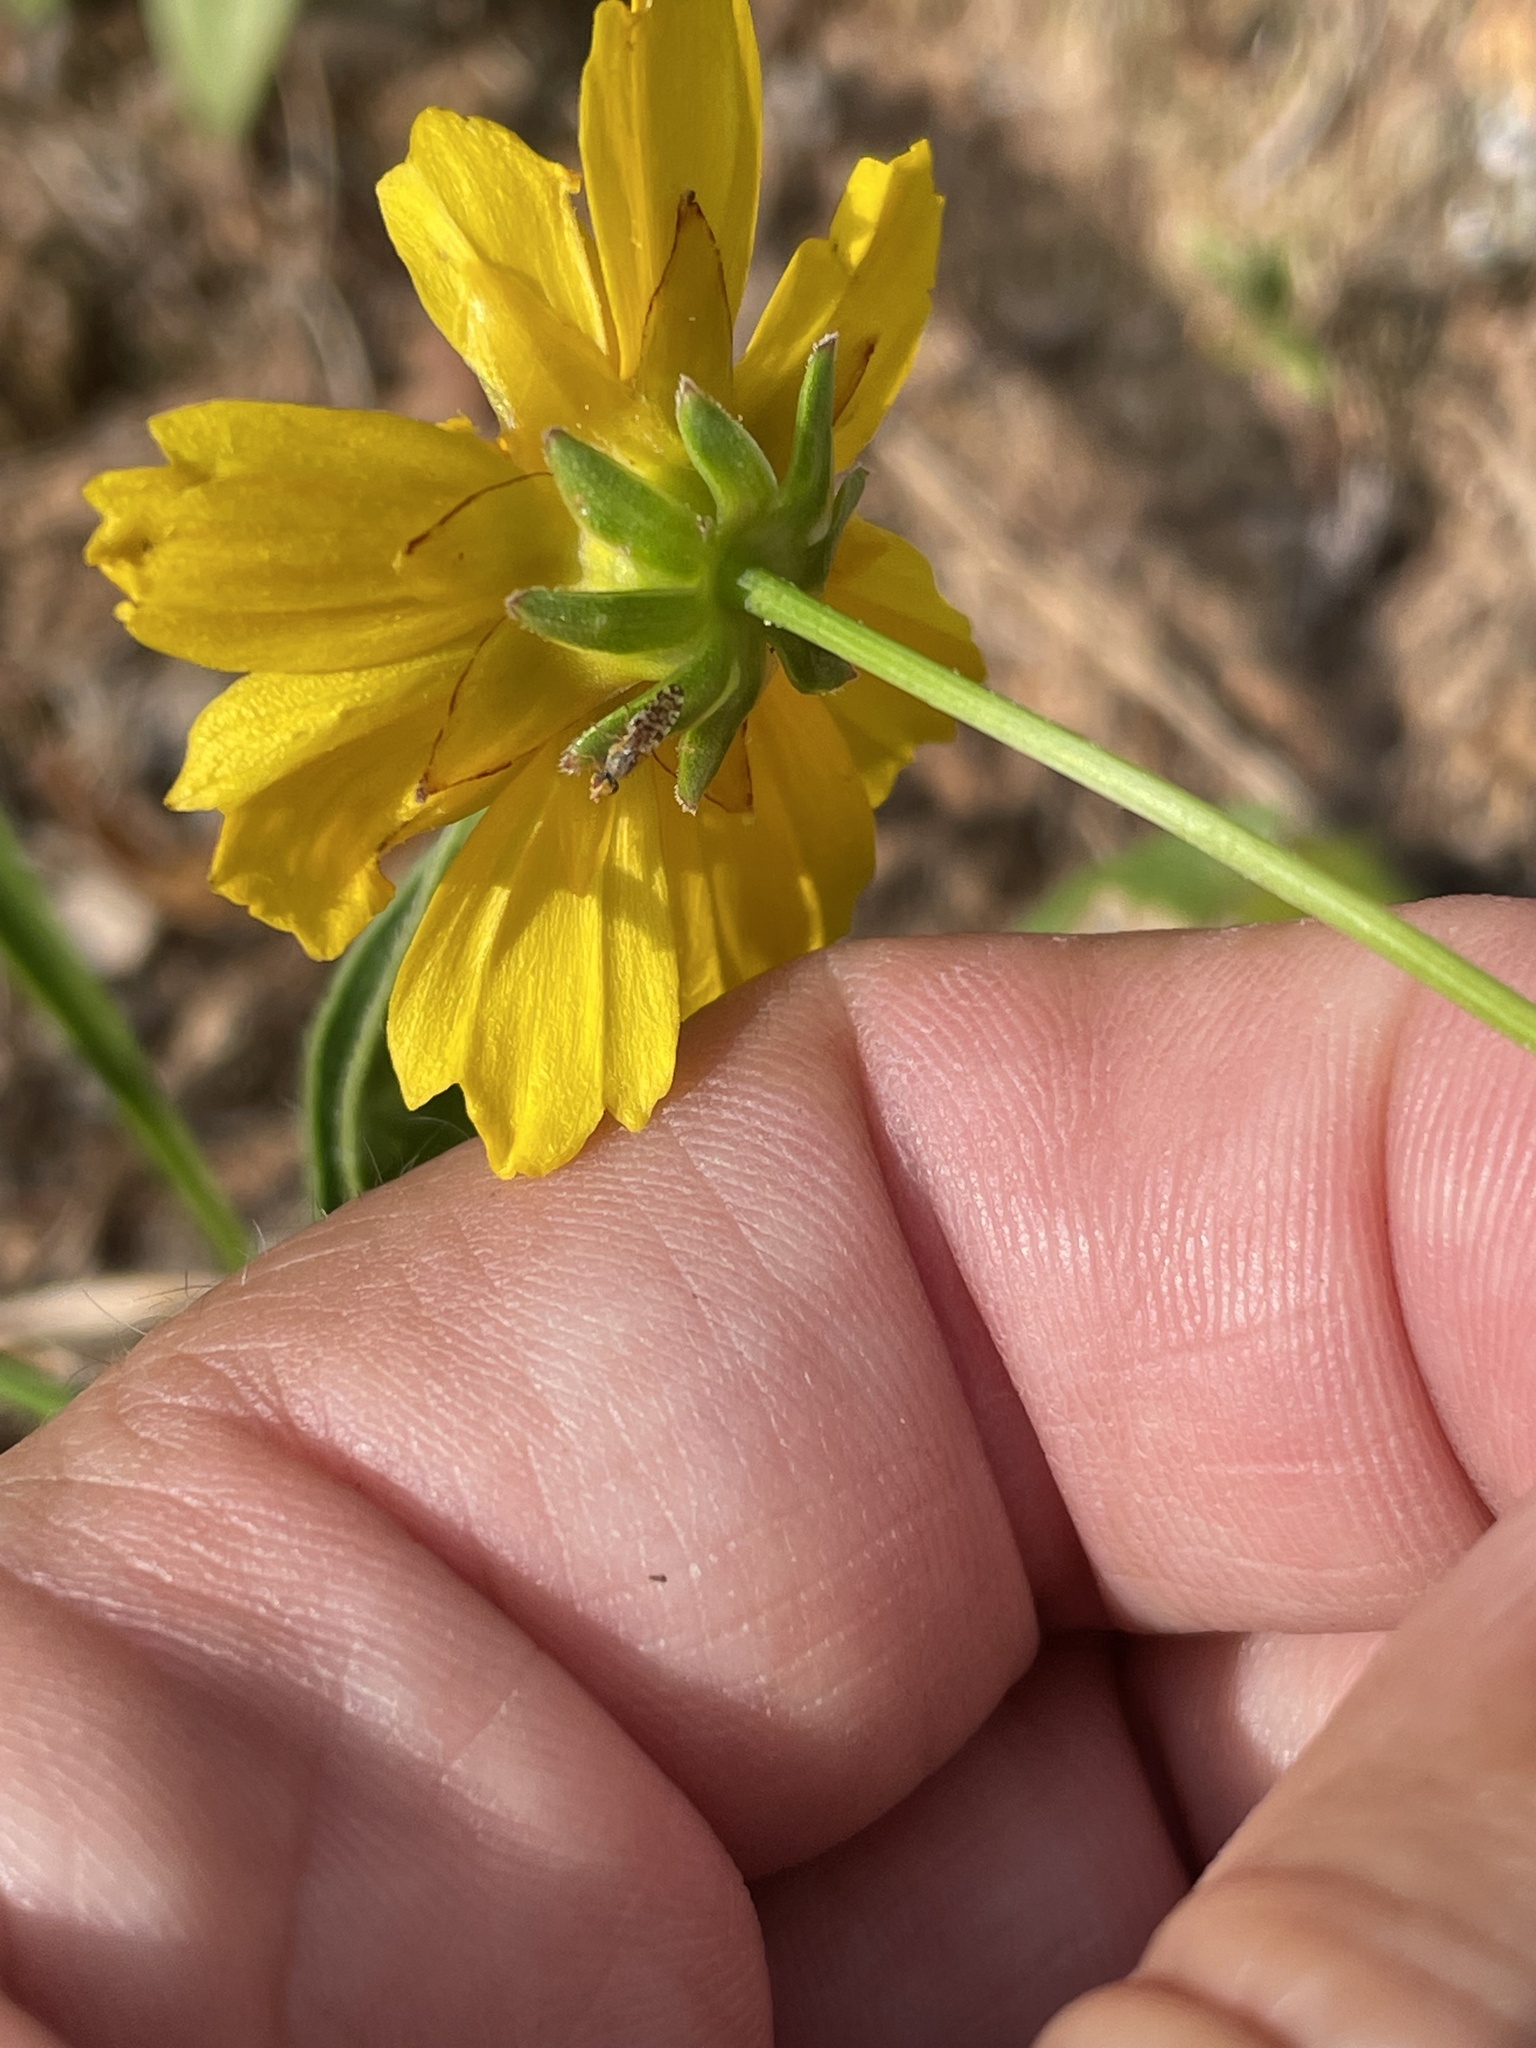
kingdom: Plantae
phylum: Tracheophyta
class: Magnoliopsida
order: Asterales
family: Asteraceae
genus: Coreopsis
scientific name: Coreopsis lanceolata
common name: Garden coreopsis
